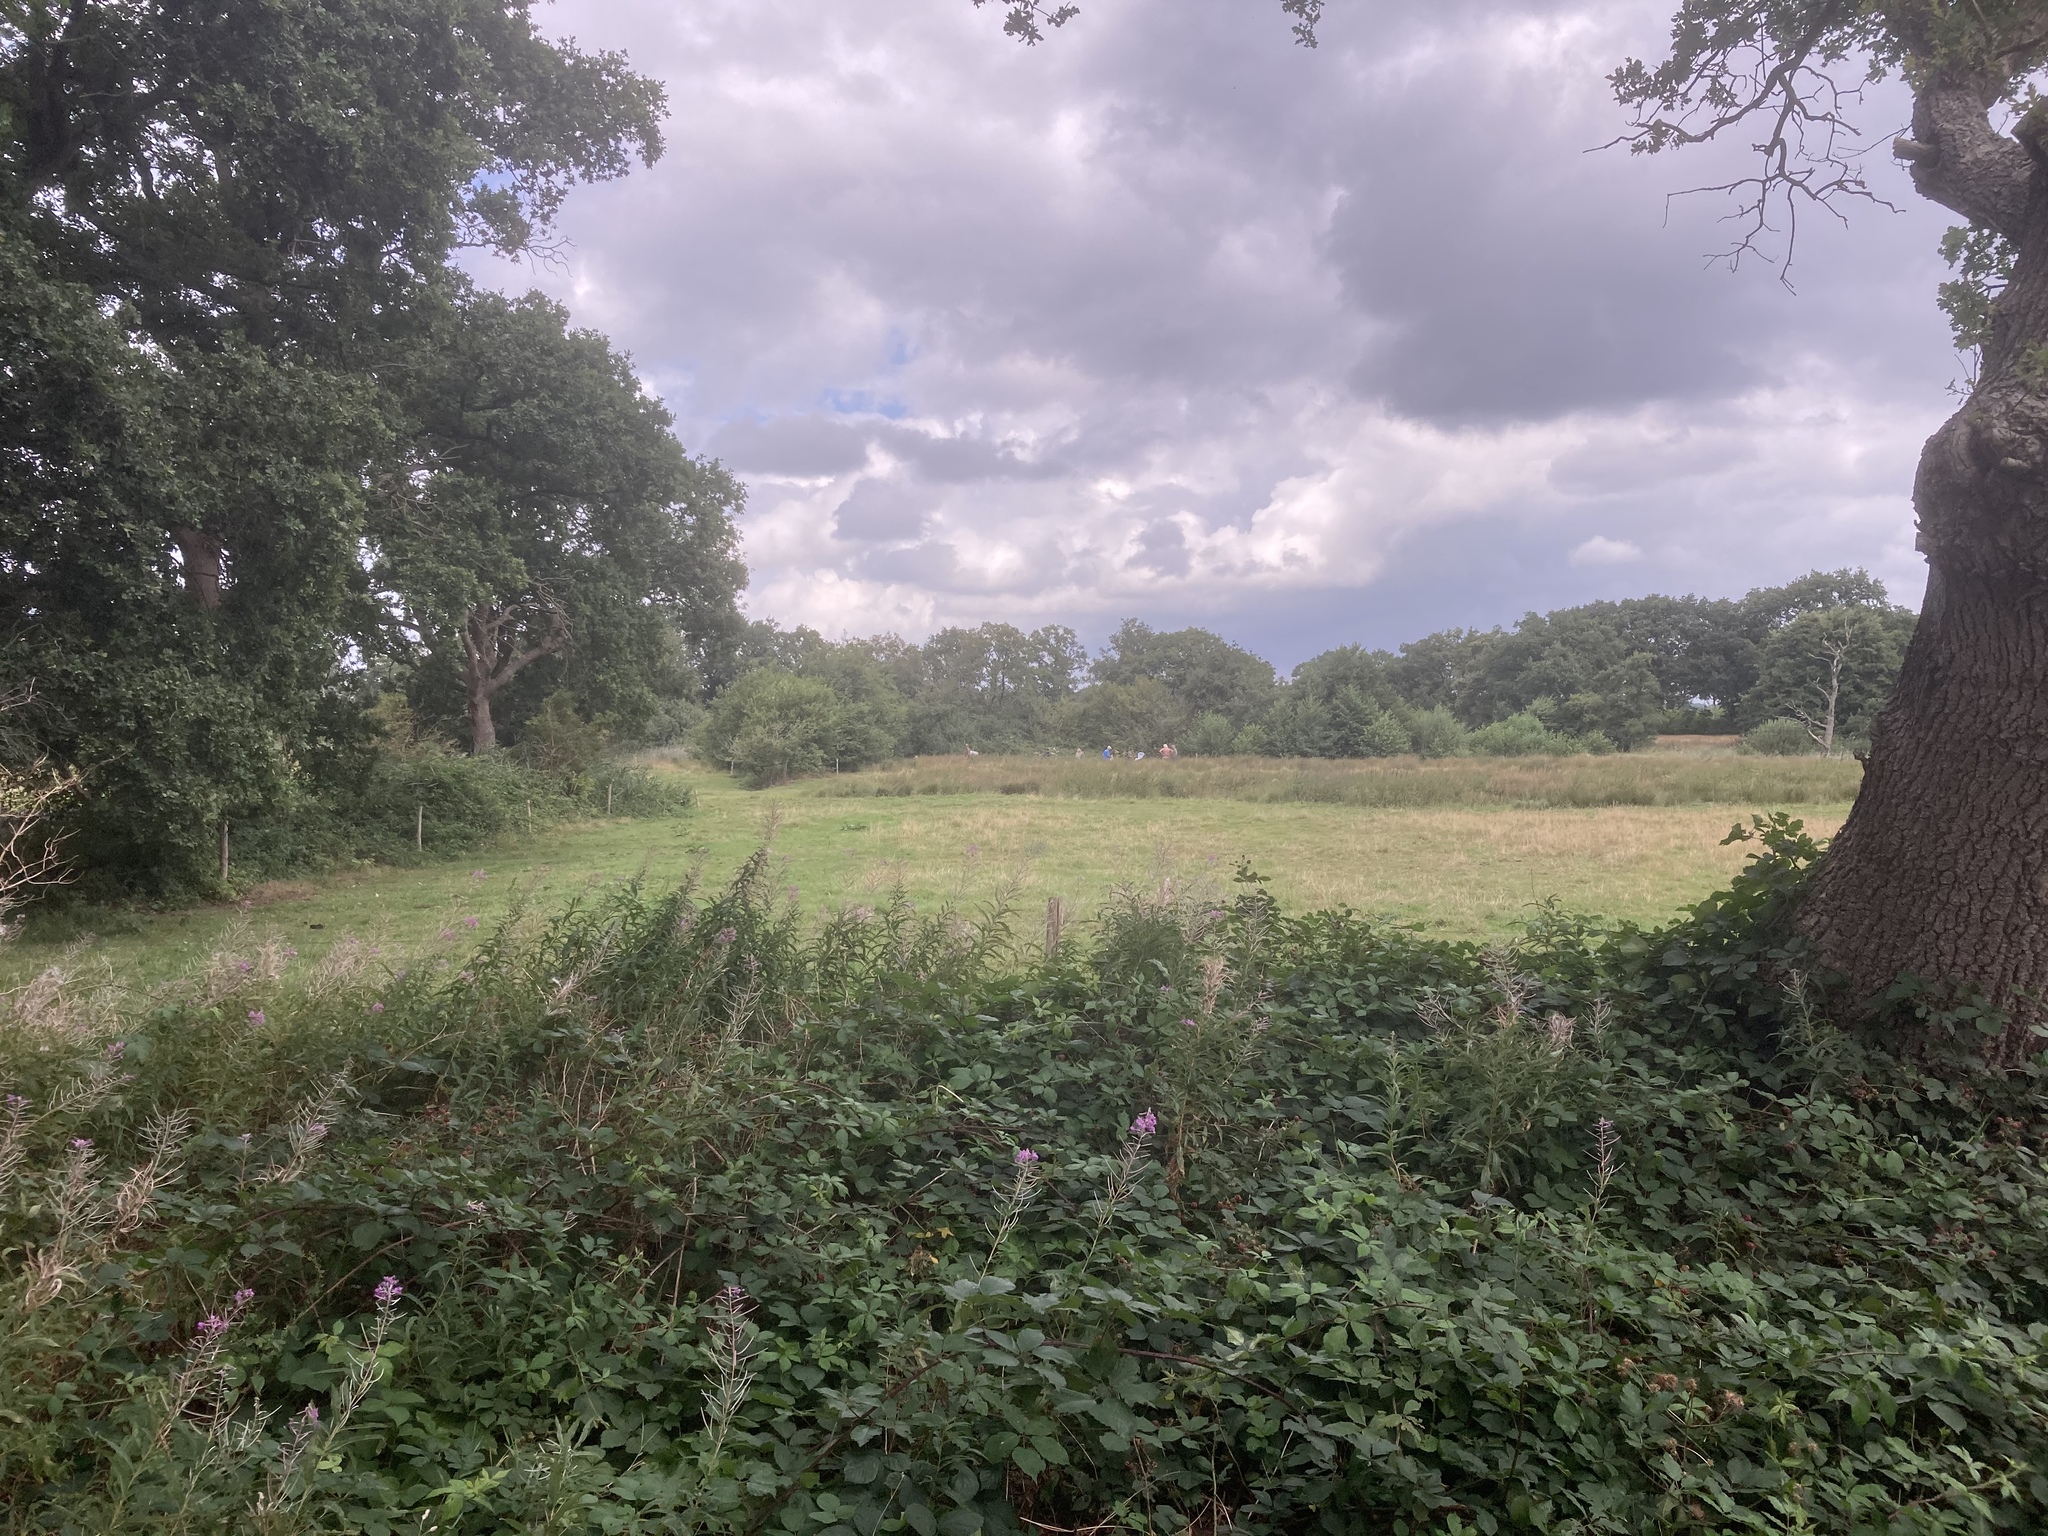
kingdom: Plantae
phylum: Tracheophyta
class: Magnoliopsida
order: Myrtales
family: Onagraceae
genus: Chamaenerion
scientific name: Chamaenerion angustifolium
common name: Fireweed
